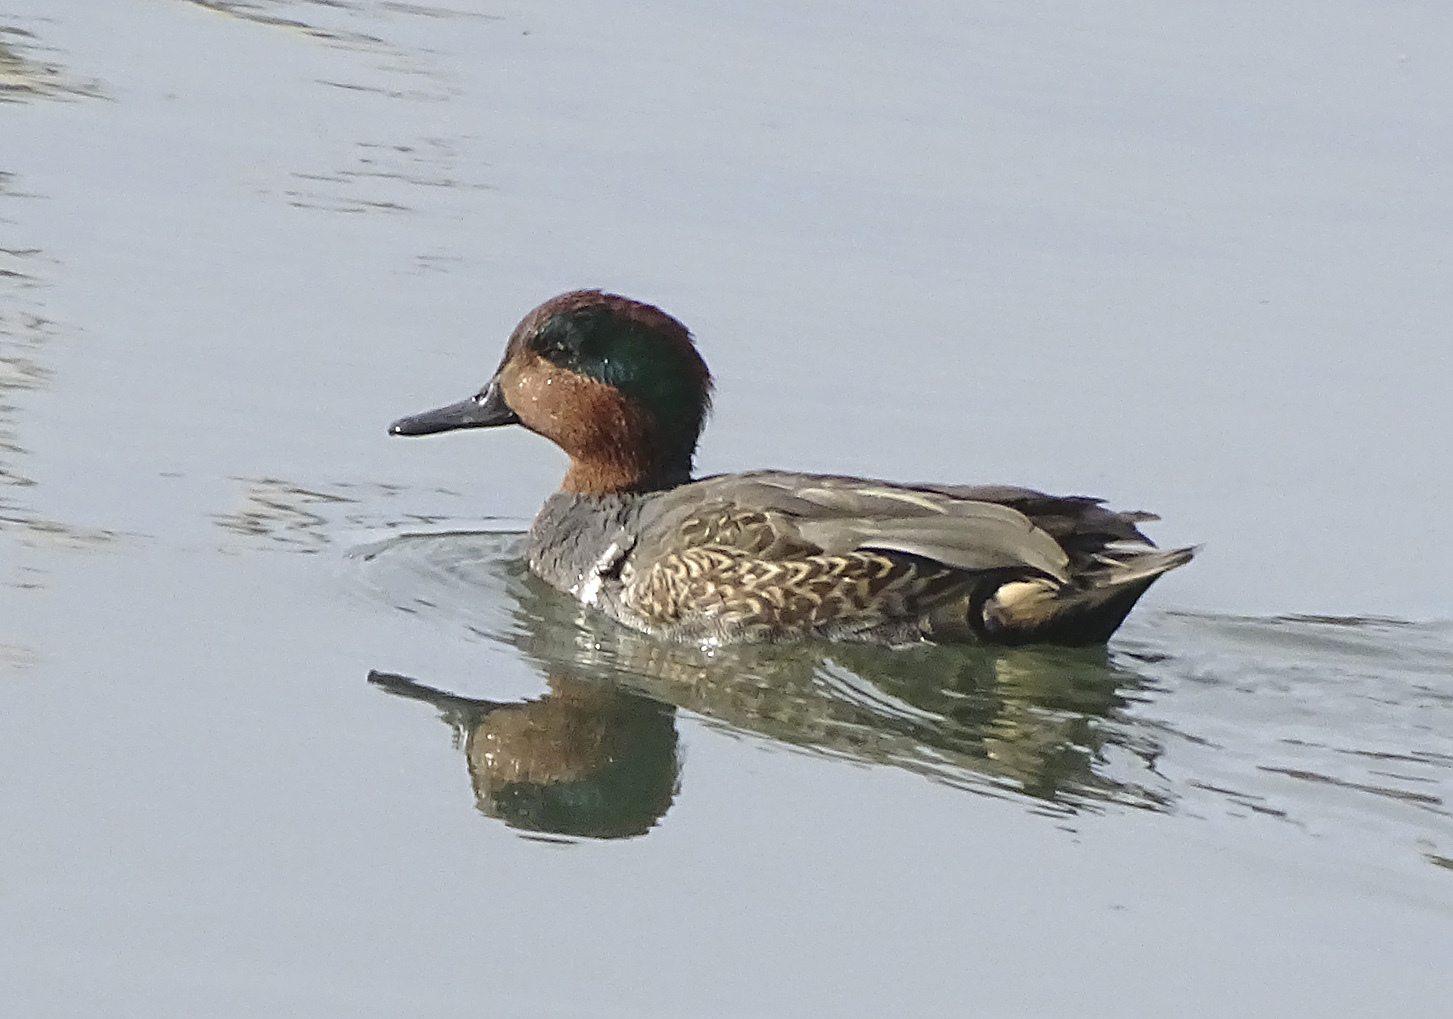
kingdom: Animalia
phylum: Chordata
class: Aves
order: Anseriformes
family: Anatidae
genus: Anas
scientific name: Anas crecca
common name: Eurasian teal
